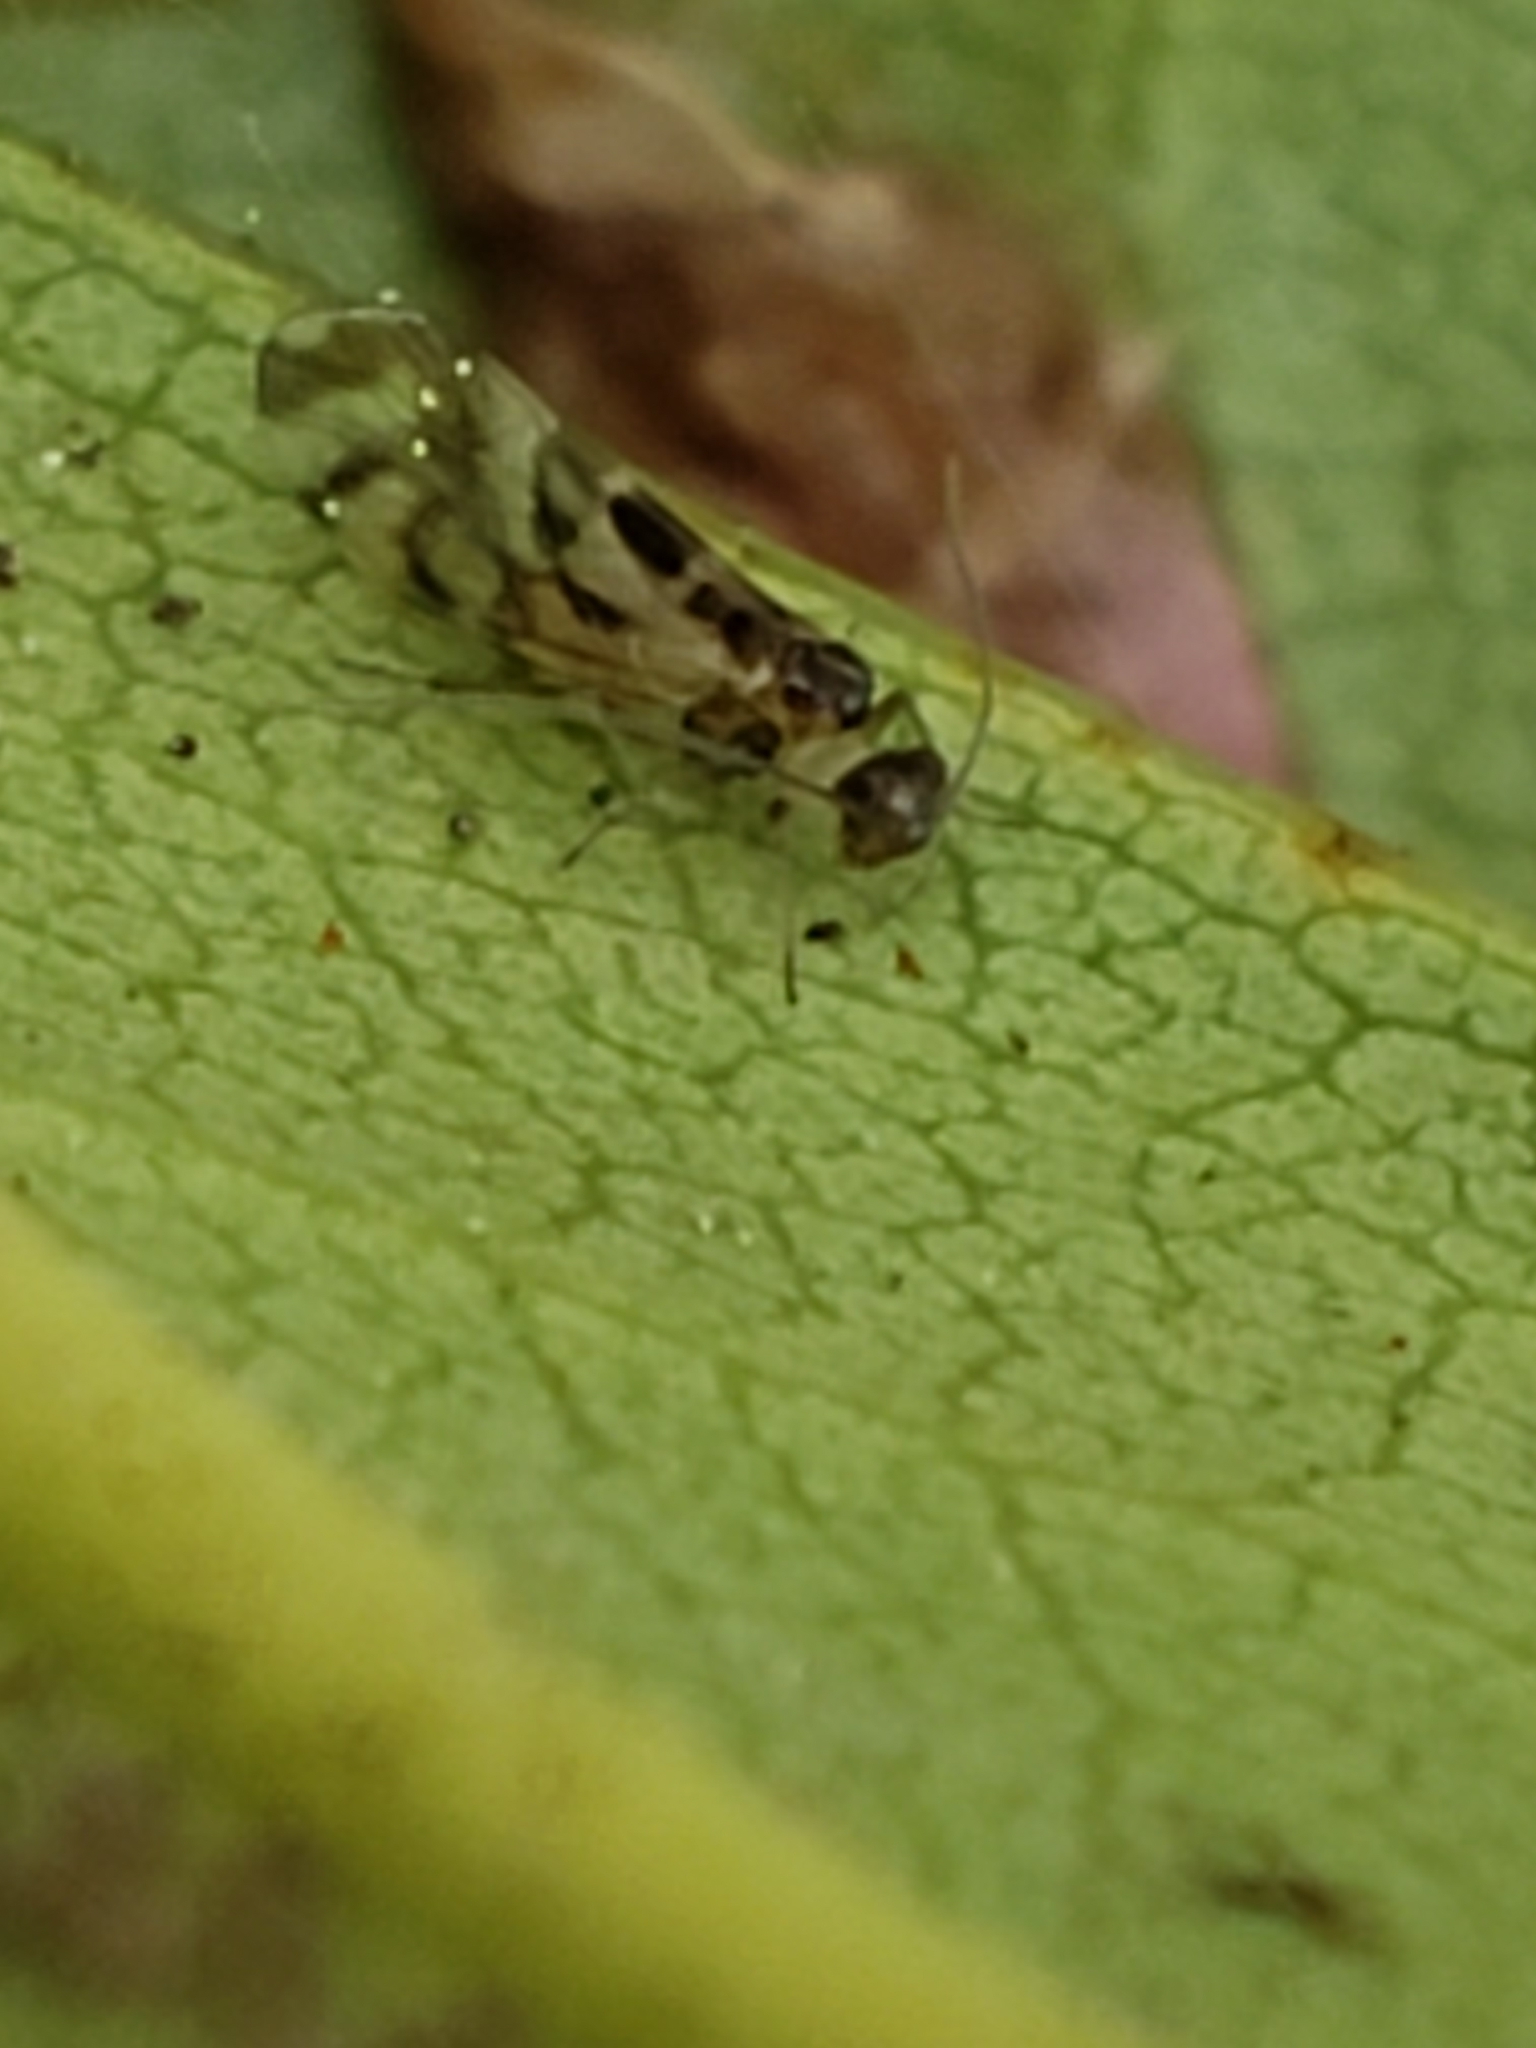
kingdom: Animalia
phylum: Arthropoda
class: Insecta
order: Psocodea
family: Stenopsocidae
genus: Graphopsocus
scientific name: Graphopsocus cruciatus
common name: Lizard bark louse
